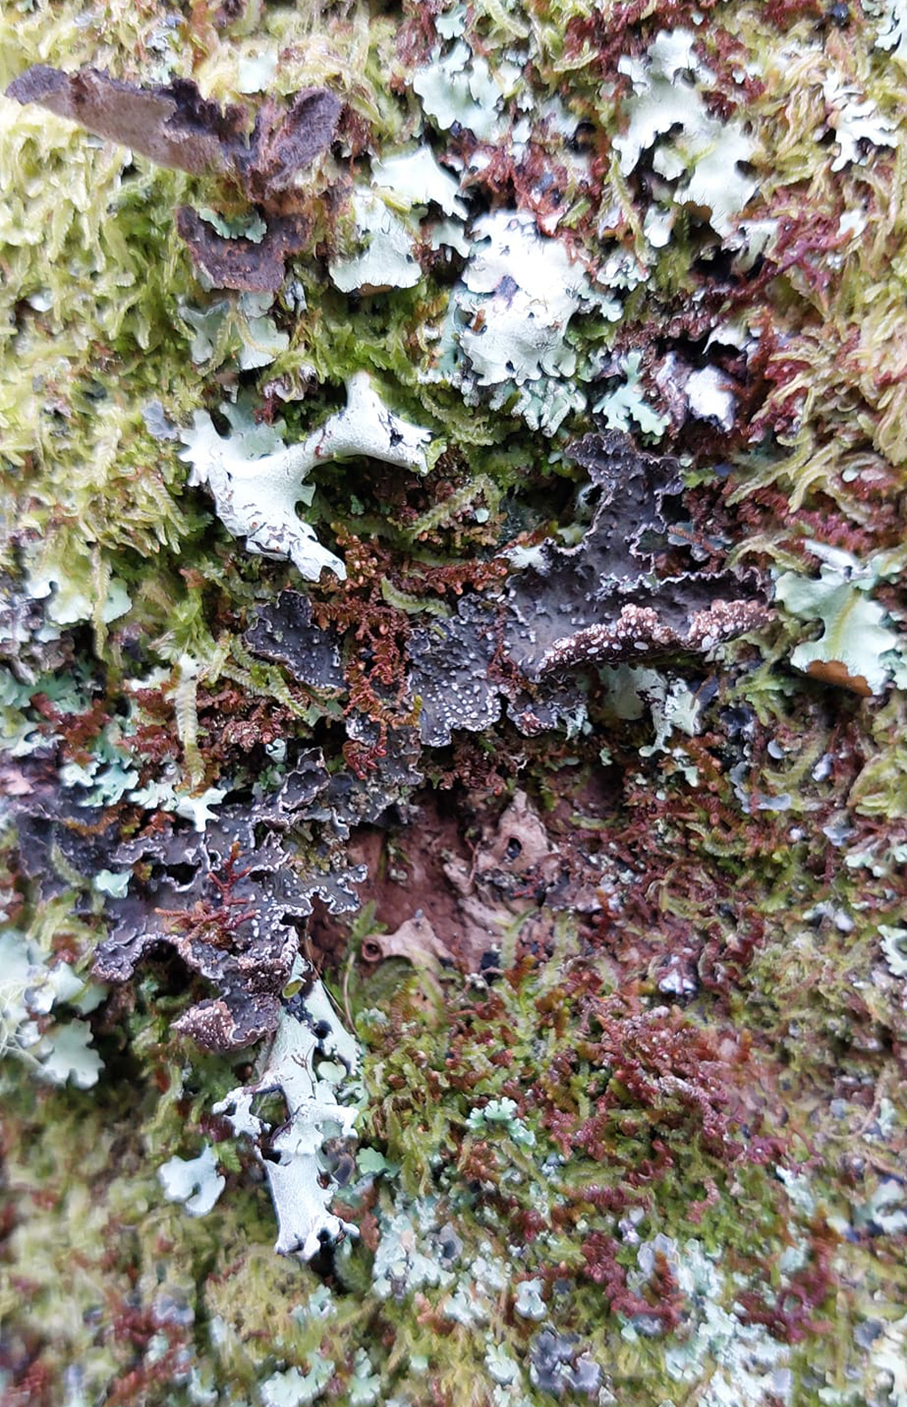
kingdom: Fungi
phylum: Ascomycota
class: Lecanoromycetes
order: Peltigerales
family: Lobariaceae
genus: Pseudocyphellaria
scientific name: Pseudocyphellaria haywardiorum
